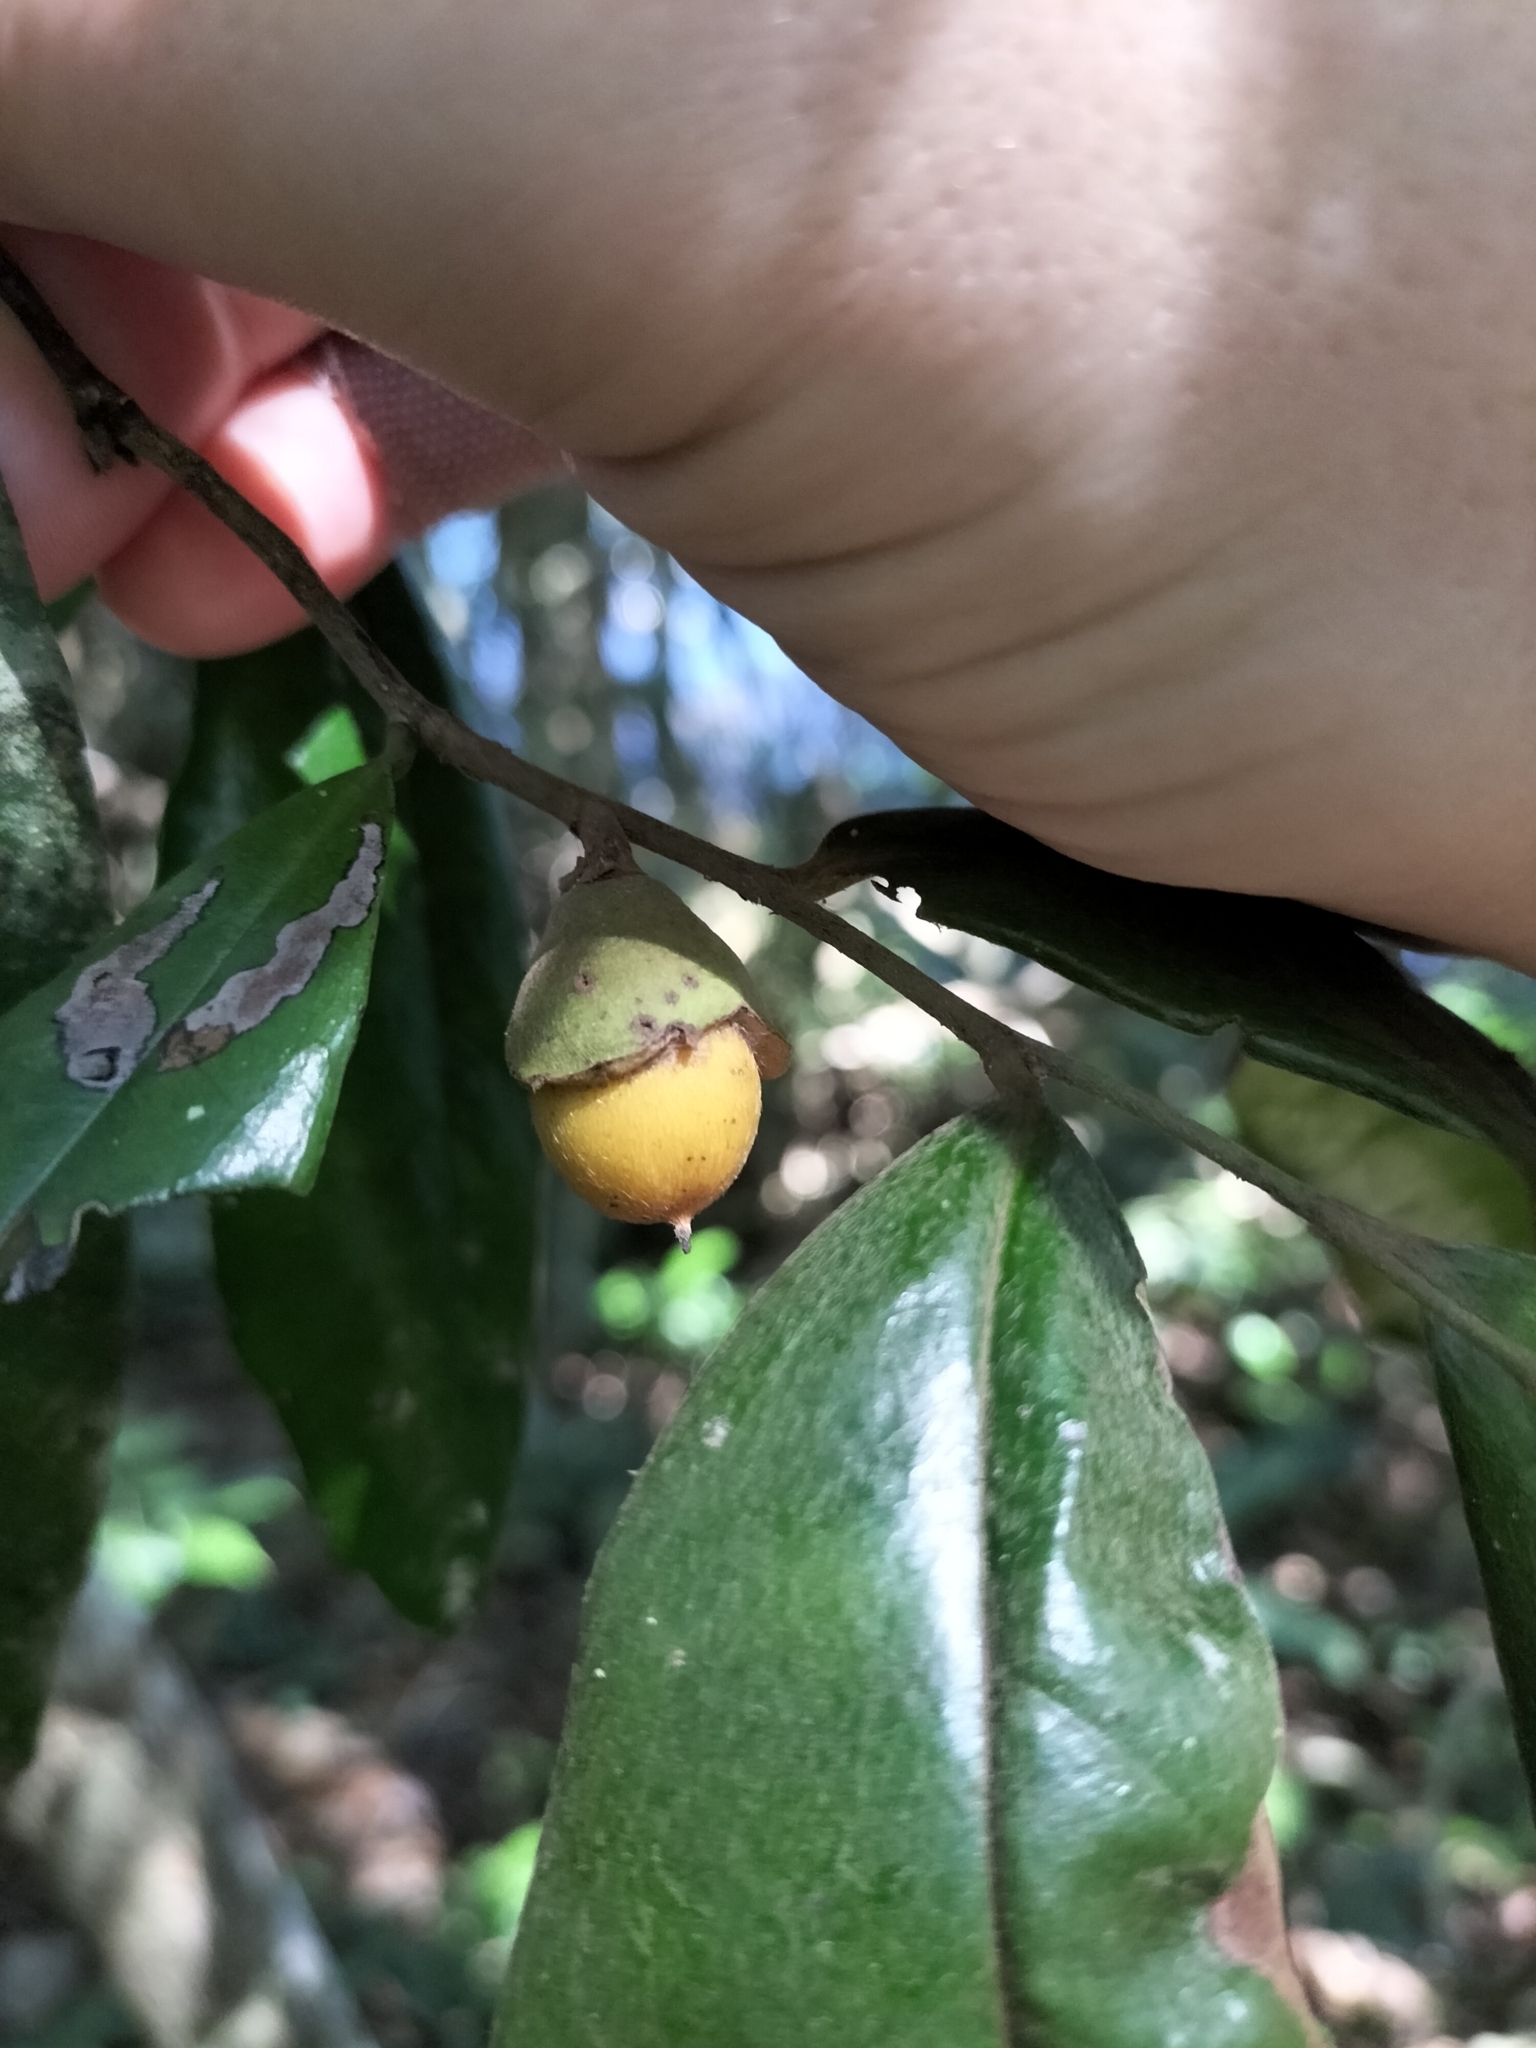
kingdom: Plantae
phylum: Tracheophyta
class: Magnoliopsida
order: Ericales
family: Ebenaceae
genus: Diospyros
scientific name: Diospyros laurina
